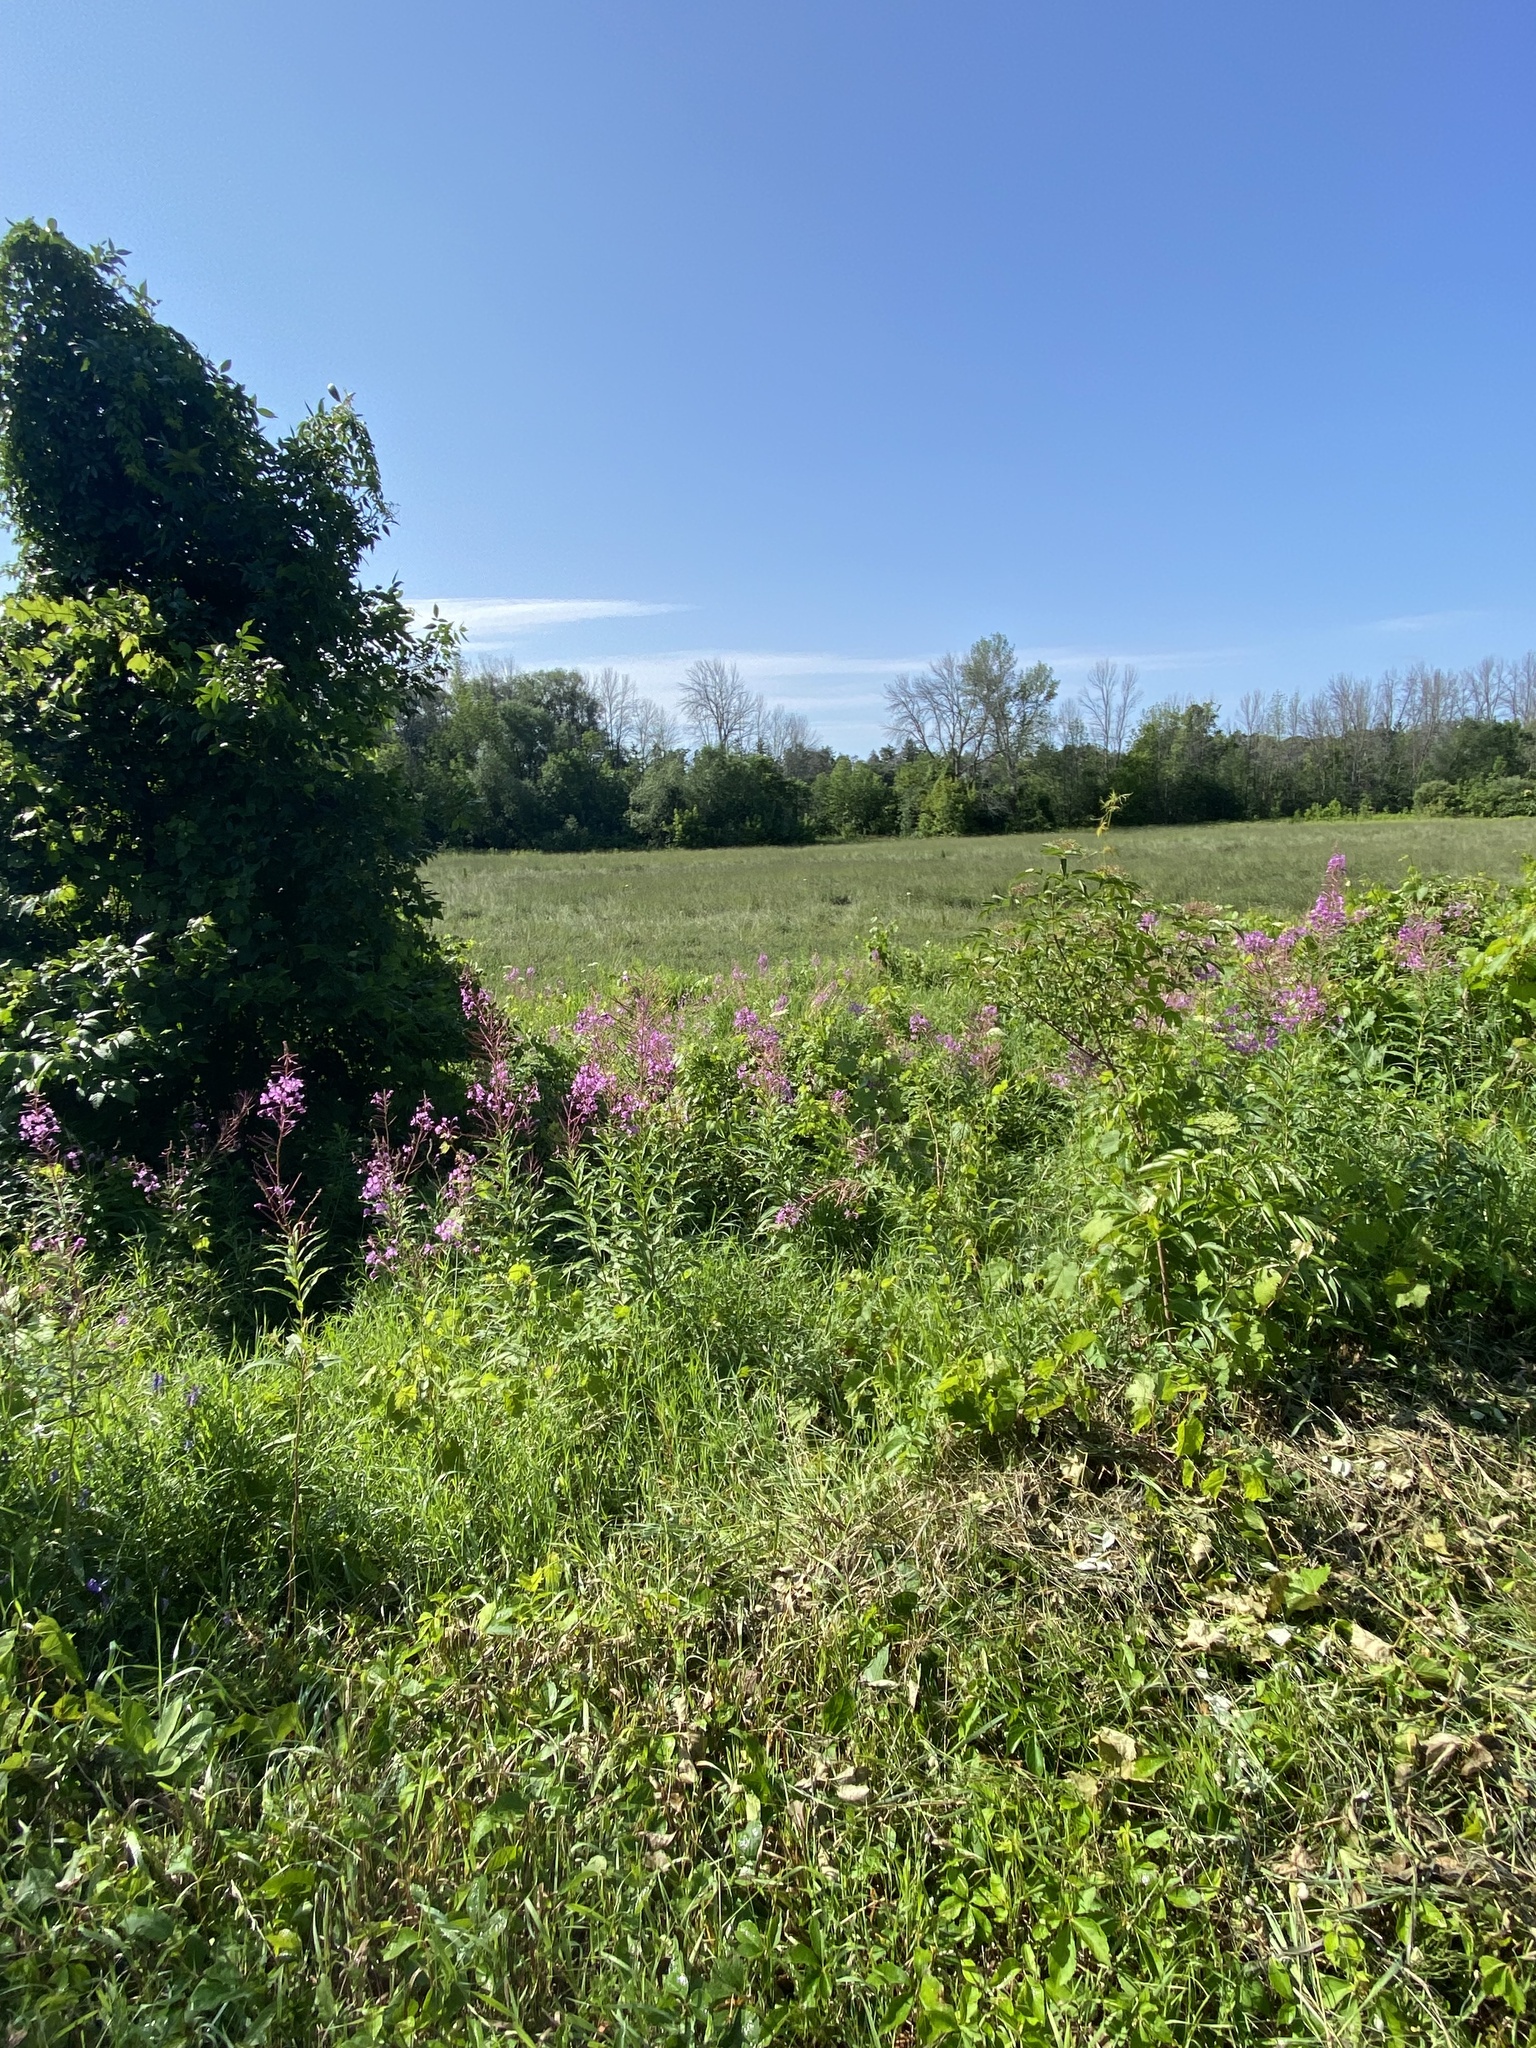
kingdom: Plantae
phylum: Tracheophyta
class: Magnoliopsida
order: Myrtales
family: Onagraceae
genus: Chamaenerion
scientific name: Chamaenerion angustifolium
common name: Fireweed
